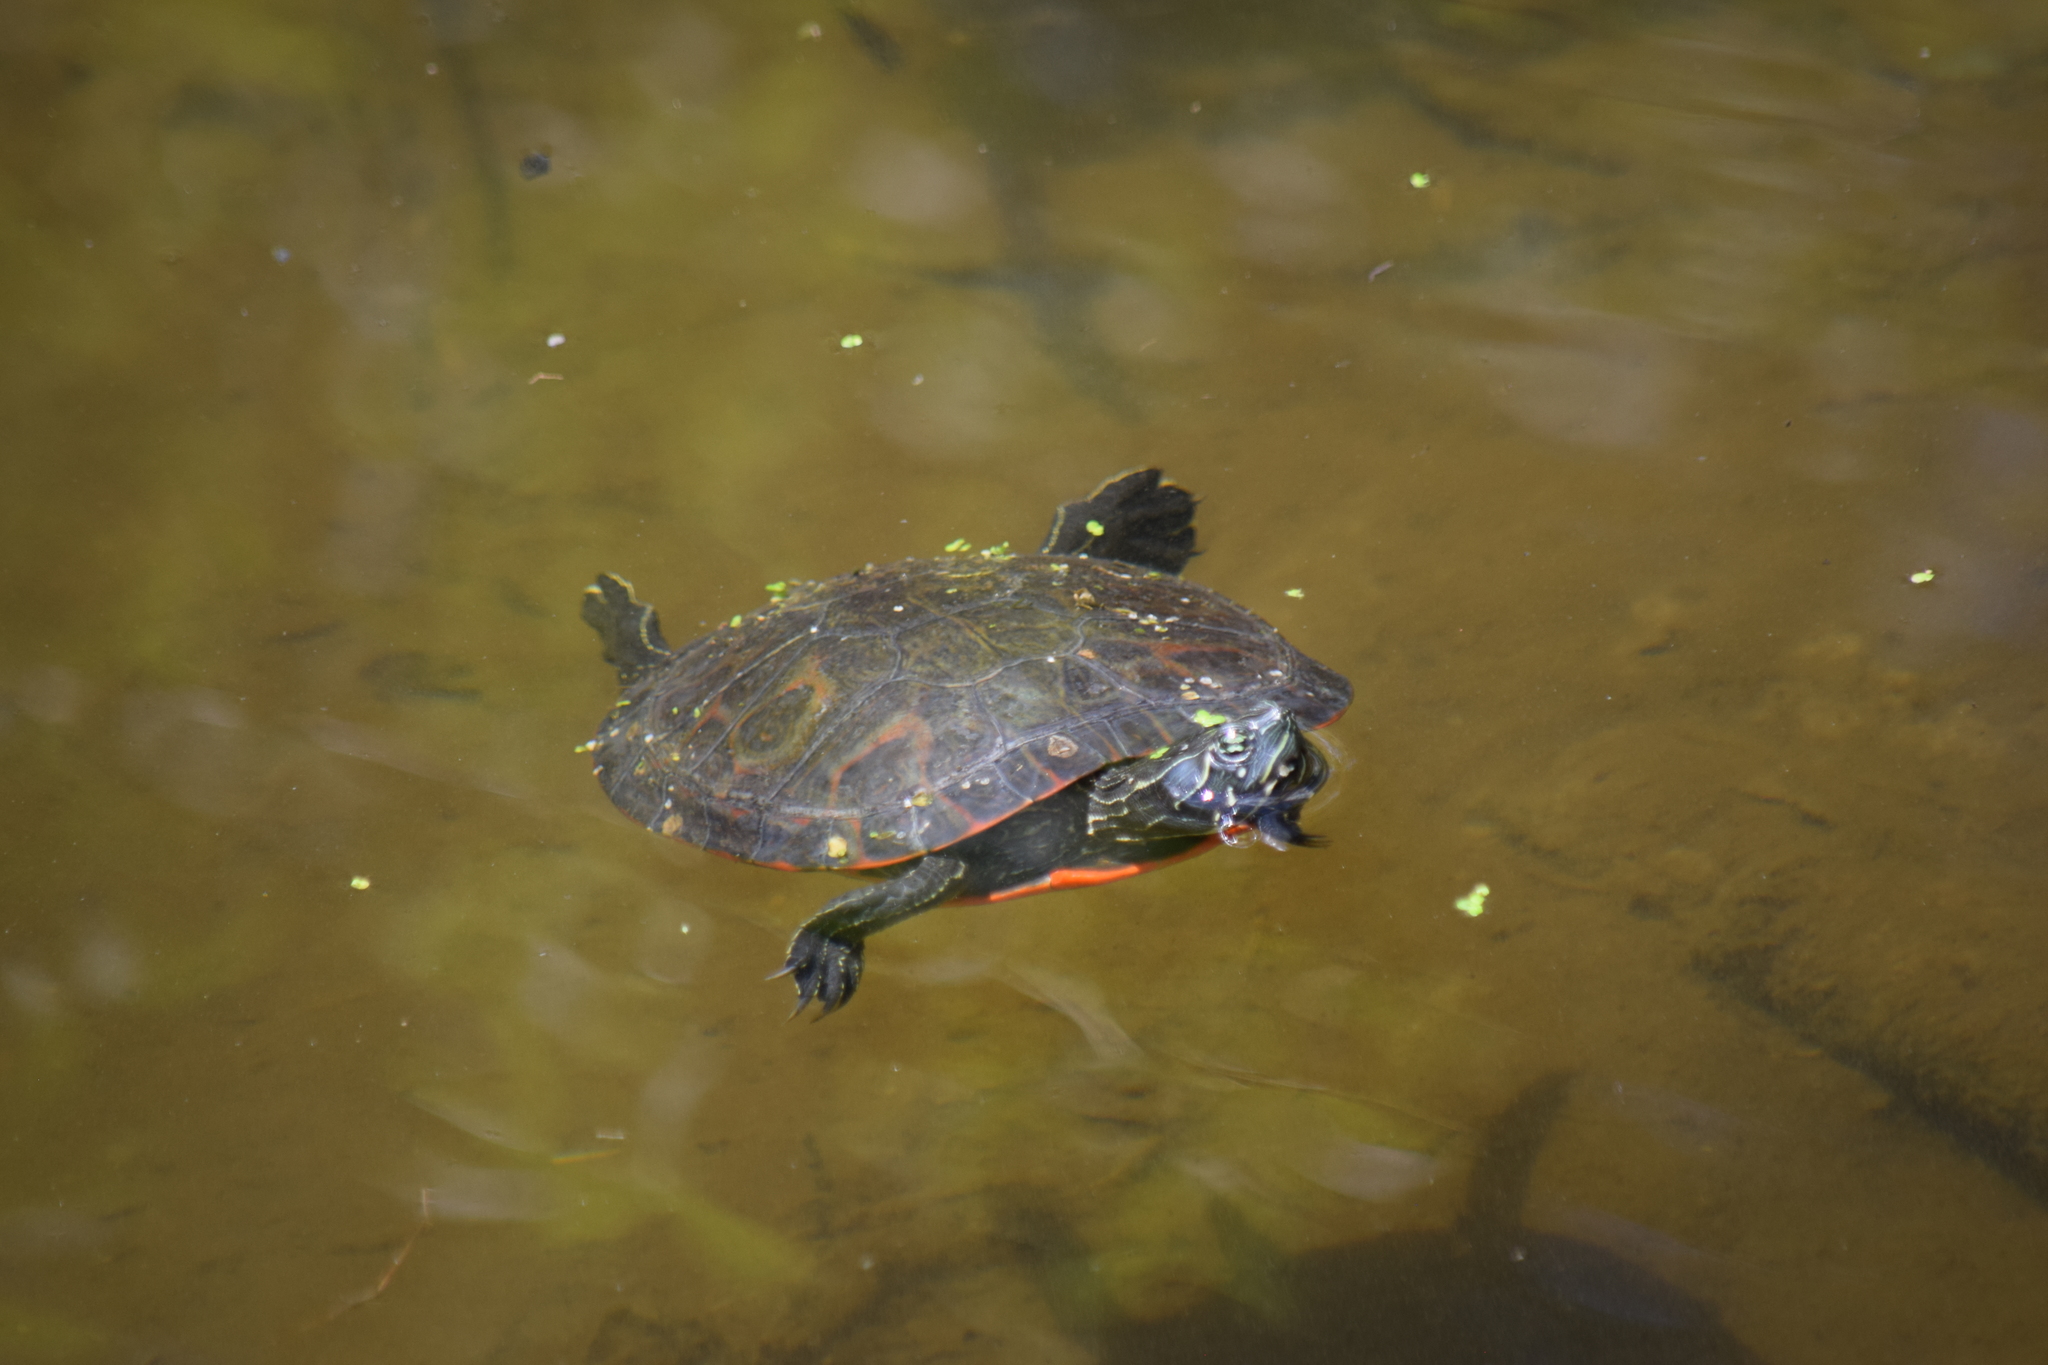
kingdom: Animalia
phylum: Chordata
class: Testudines
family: Emydidae
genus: Pseudemys
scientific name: Pseudemys rubriventris
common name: American red-bellied turtle
